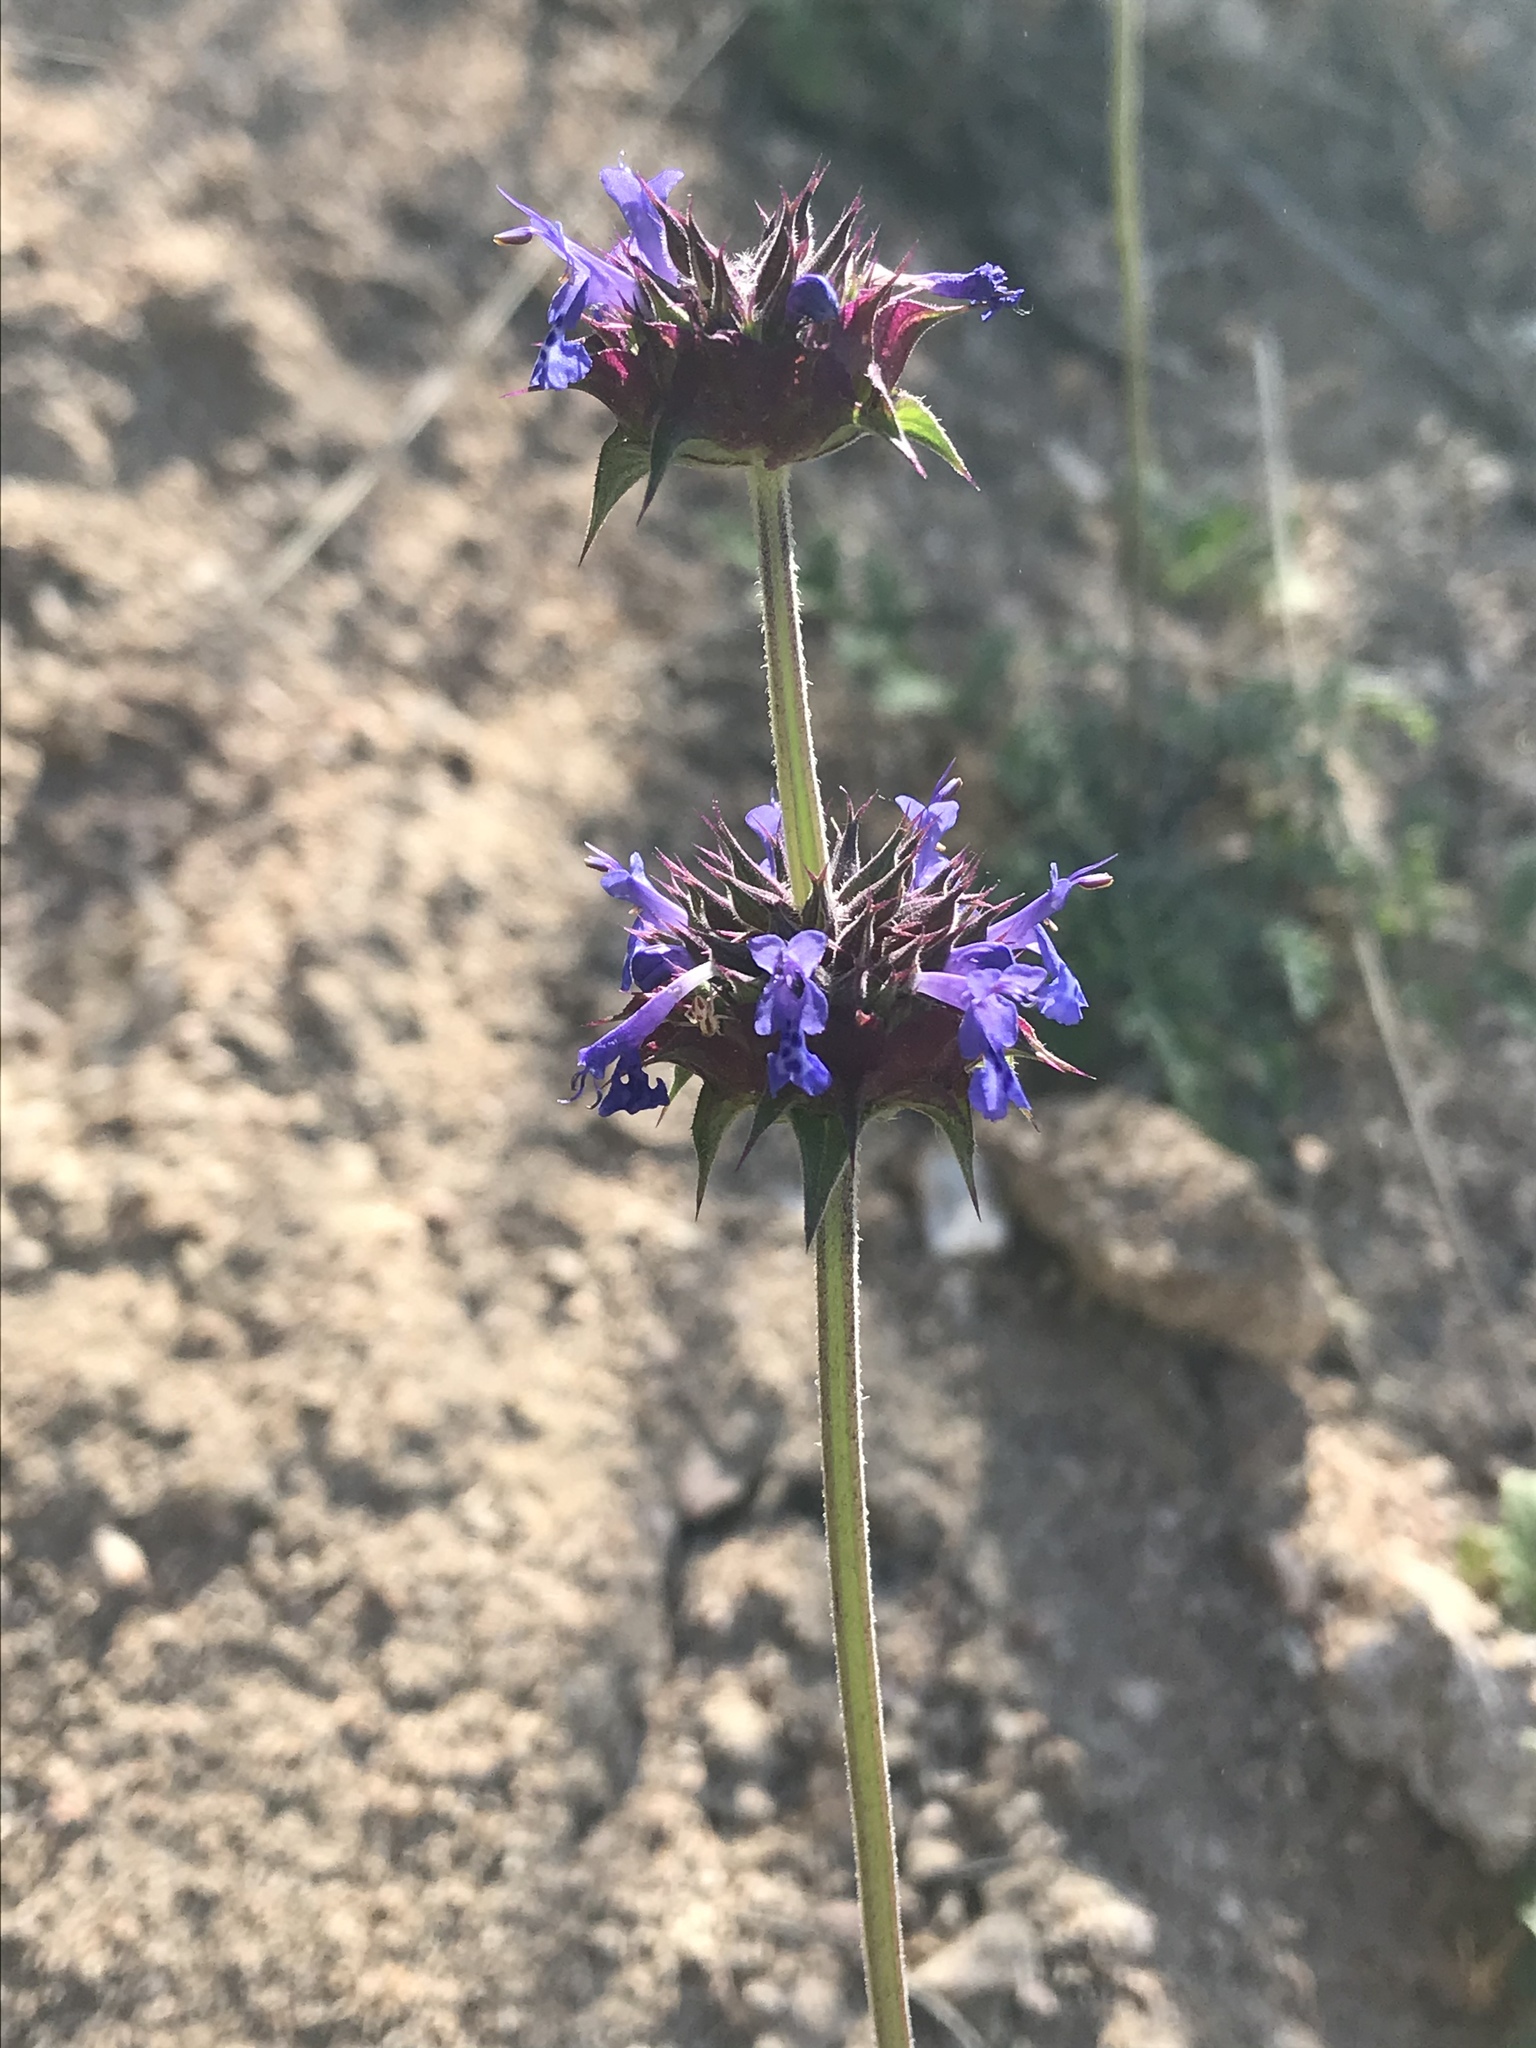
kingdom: Plantae
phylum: Tracheophyta
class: Magnoliopsida
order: Lamiales
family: Lamiaceae
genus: Salvia
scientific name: Salvia columbariae
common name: Chia
